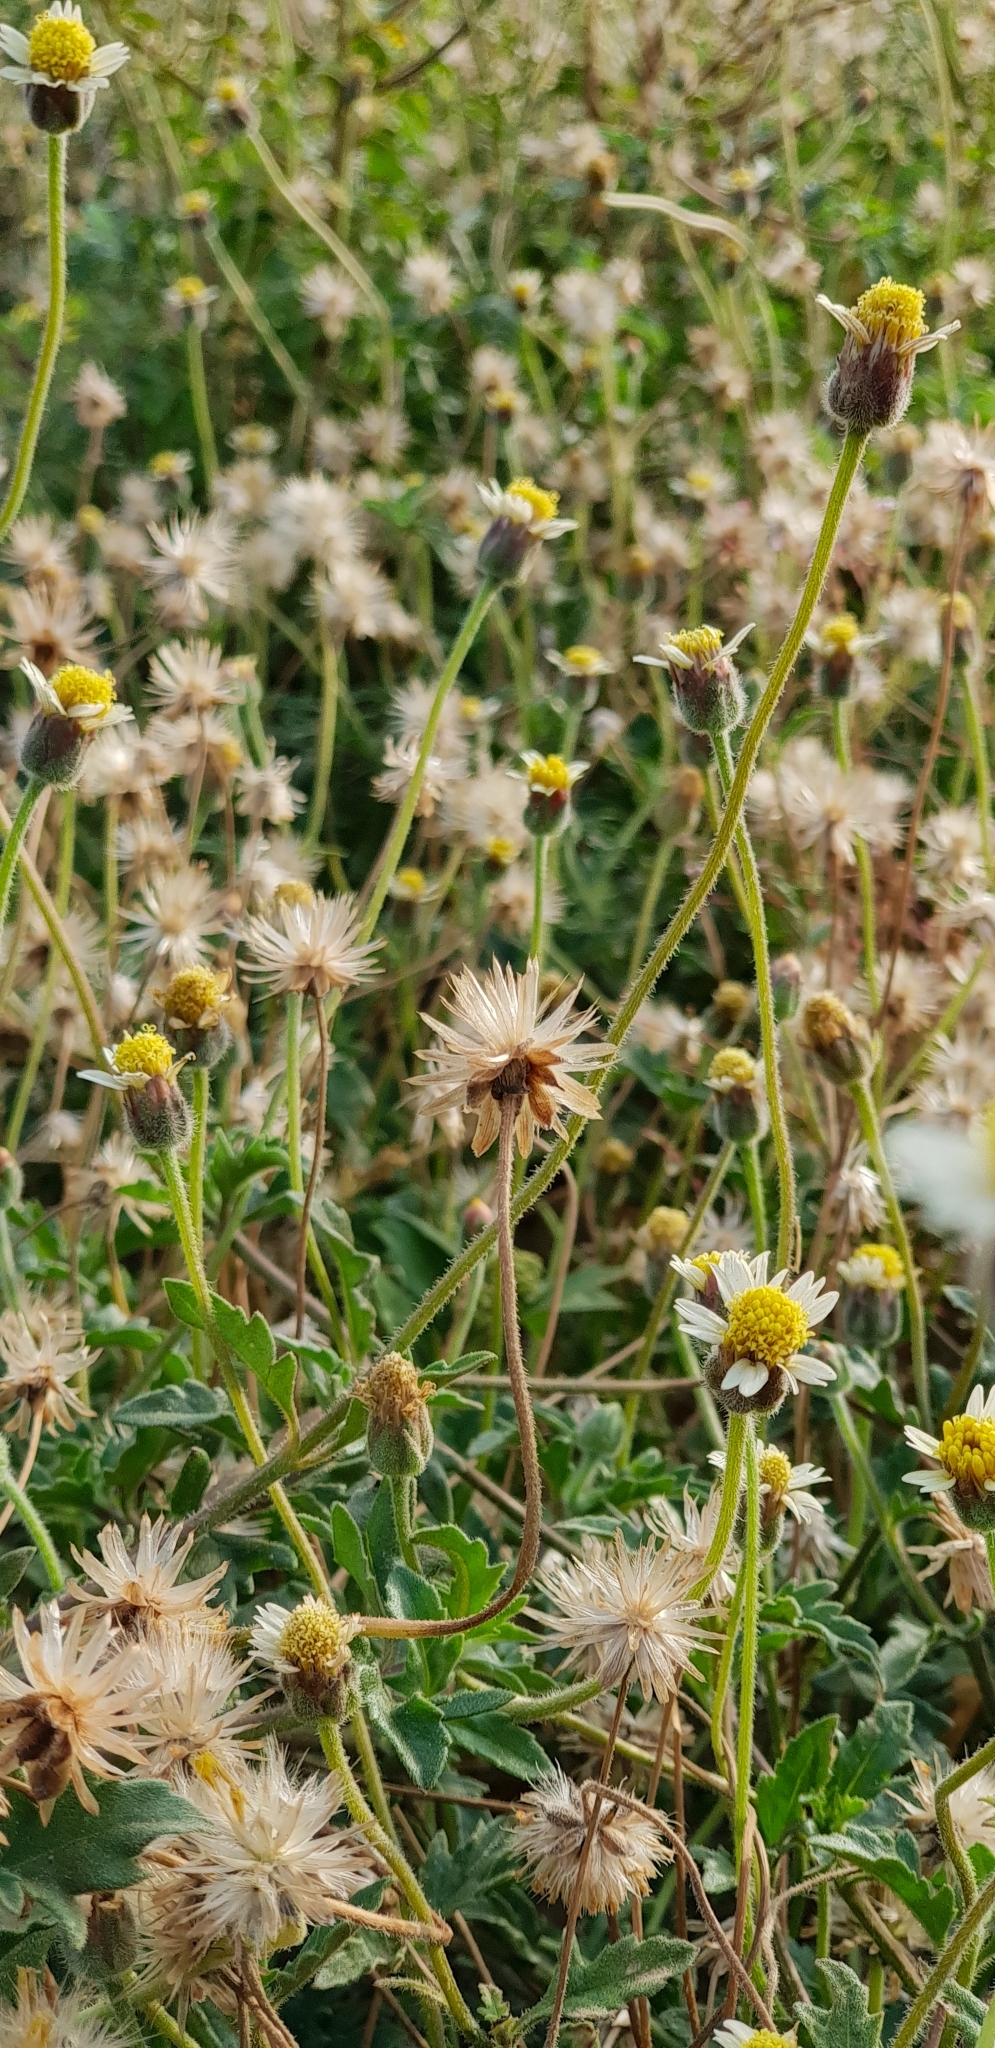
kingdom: Plantae
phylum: Tracheophyta
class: Magnoliopsida
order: Asterales
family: Asteraceae
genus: Tridax
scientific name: Tridax procumbens
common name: Coatbuttons
